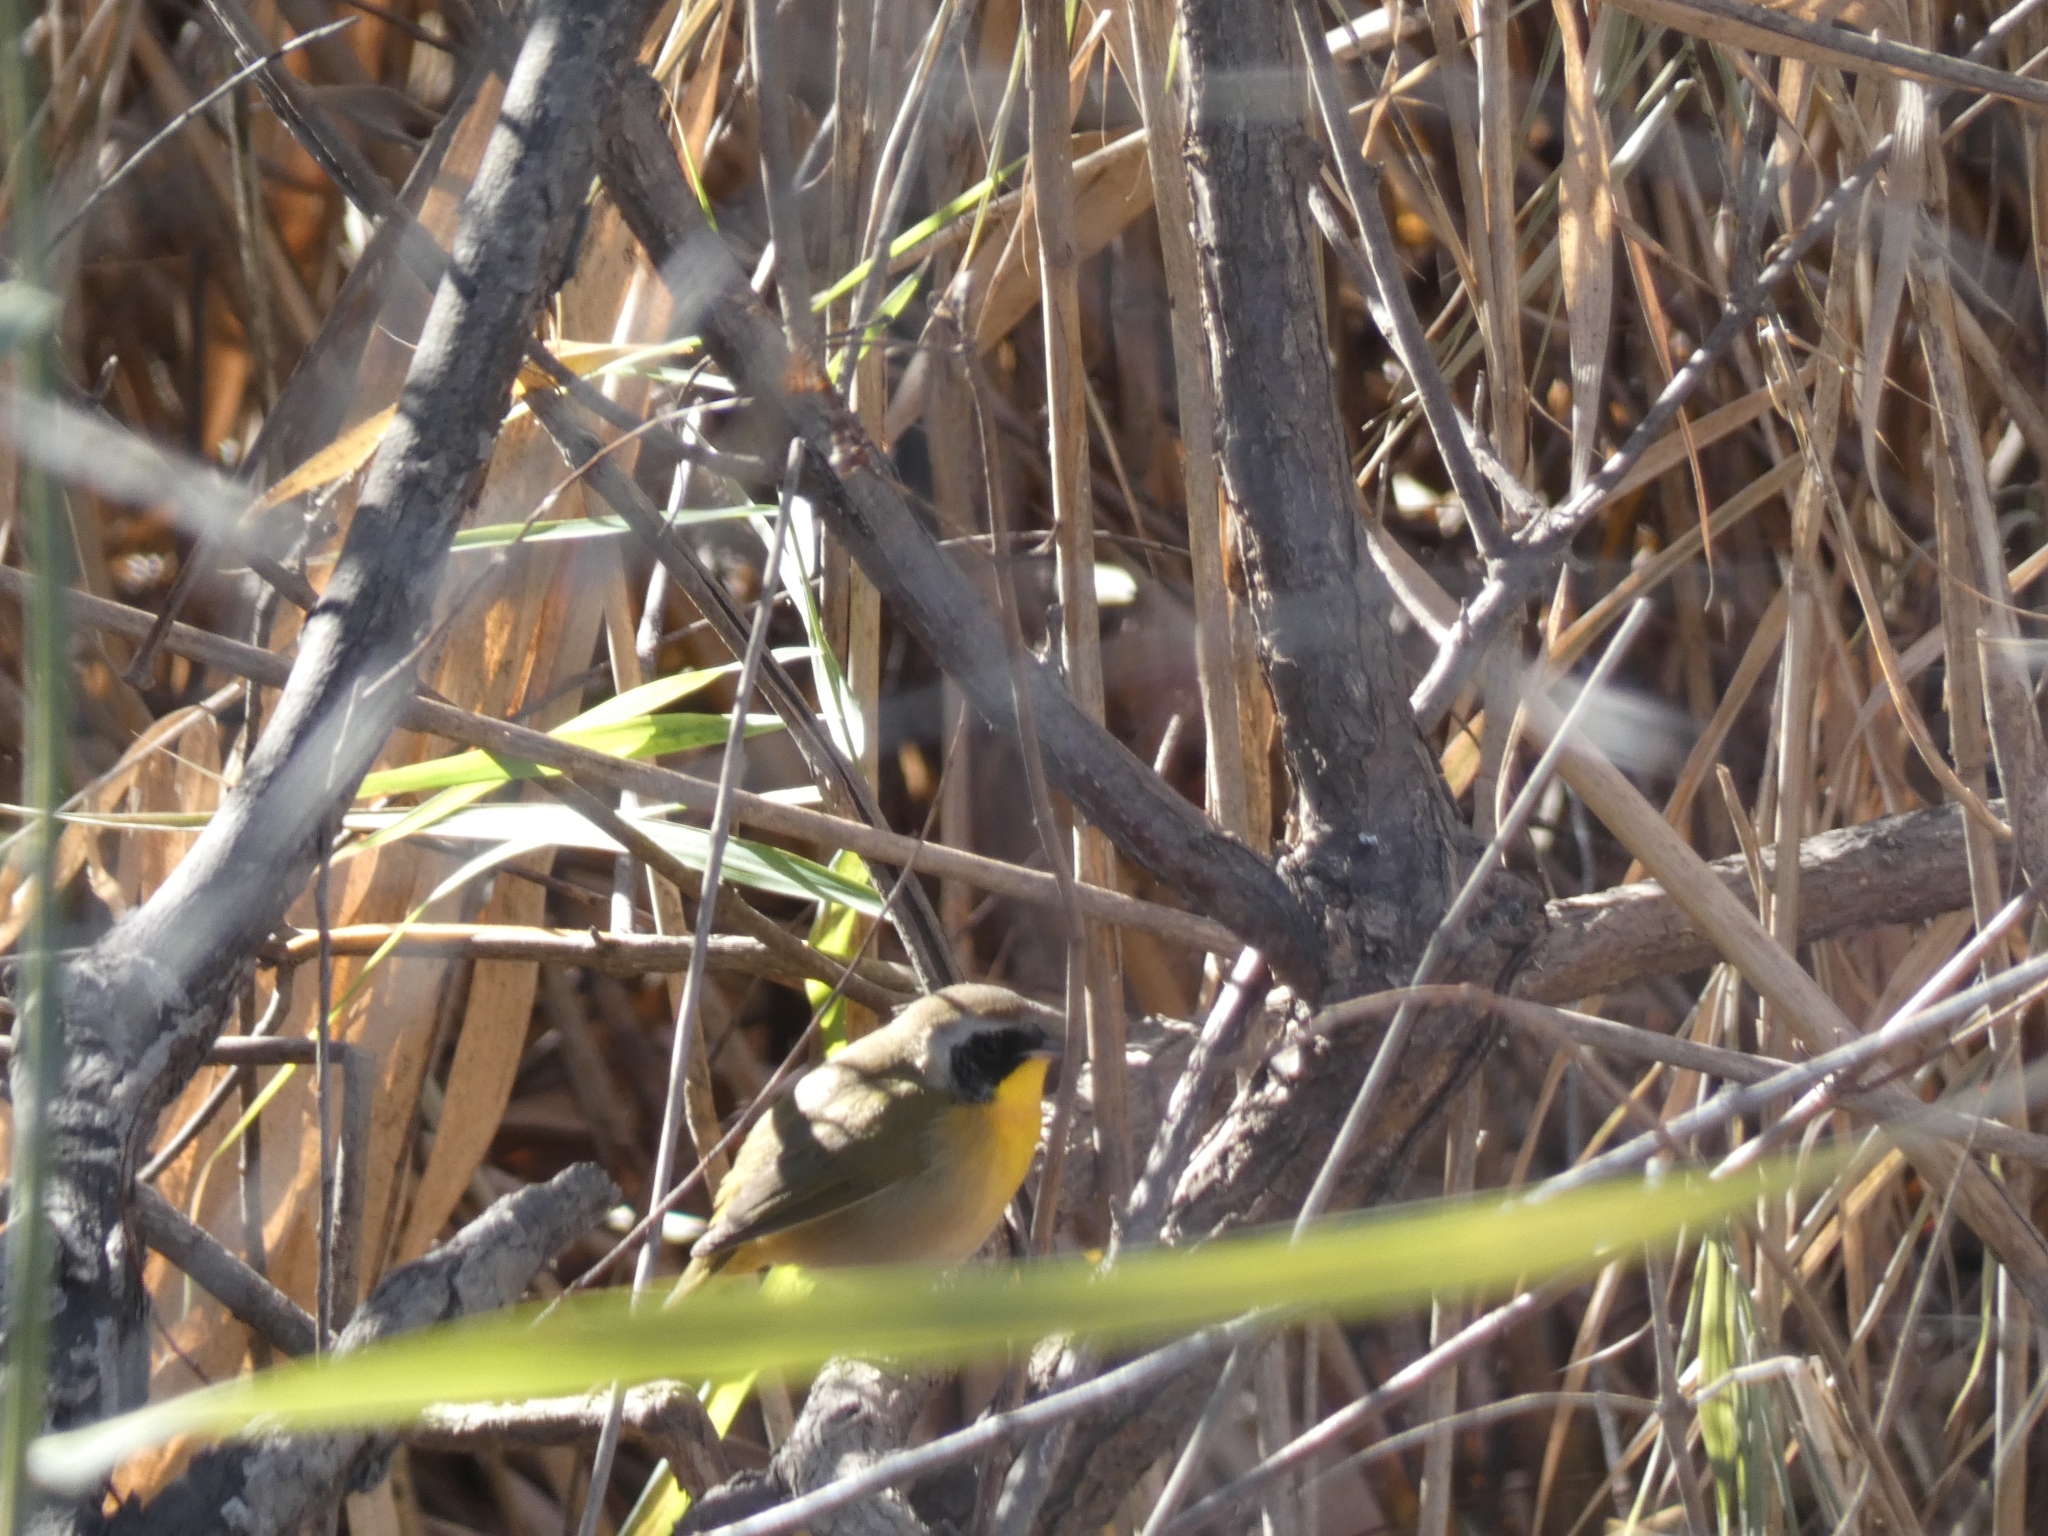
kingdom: Animalia
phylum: Chordata
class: Aves
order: Passeriformes
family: Parulidae
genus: Geothlypis
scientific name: Geothlypis trichas
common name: Common yellowthroat
